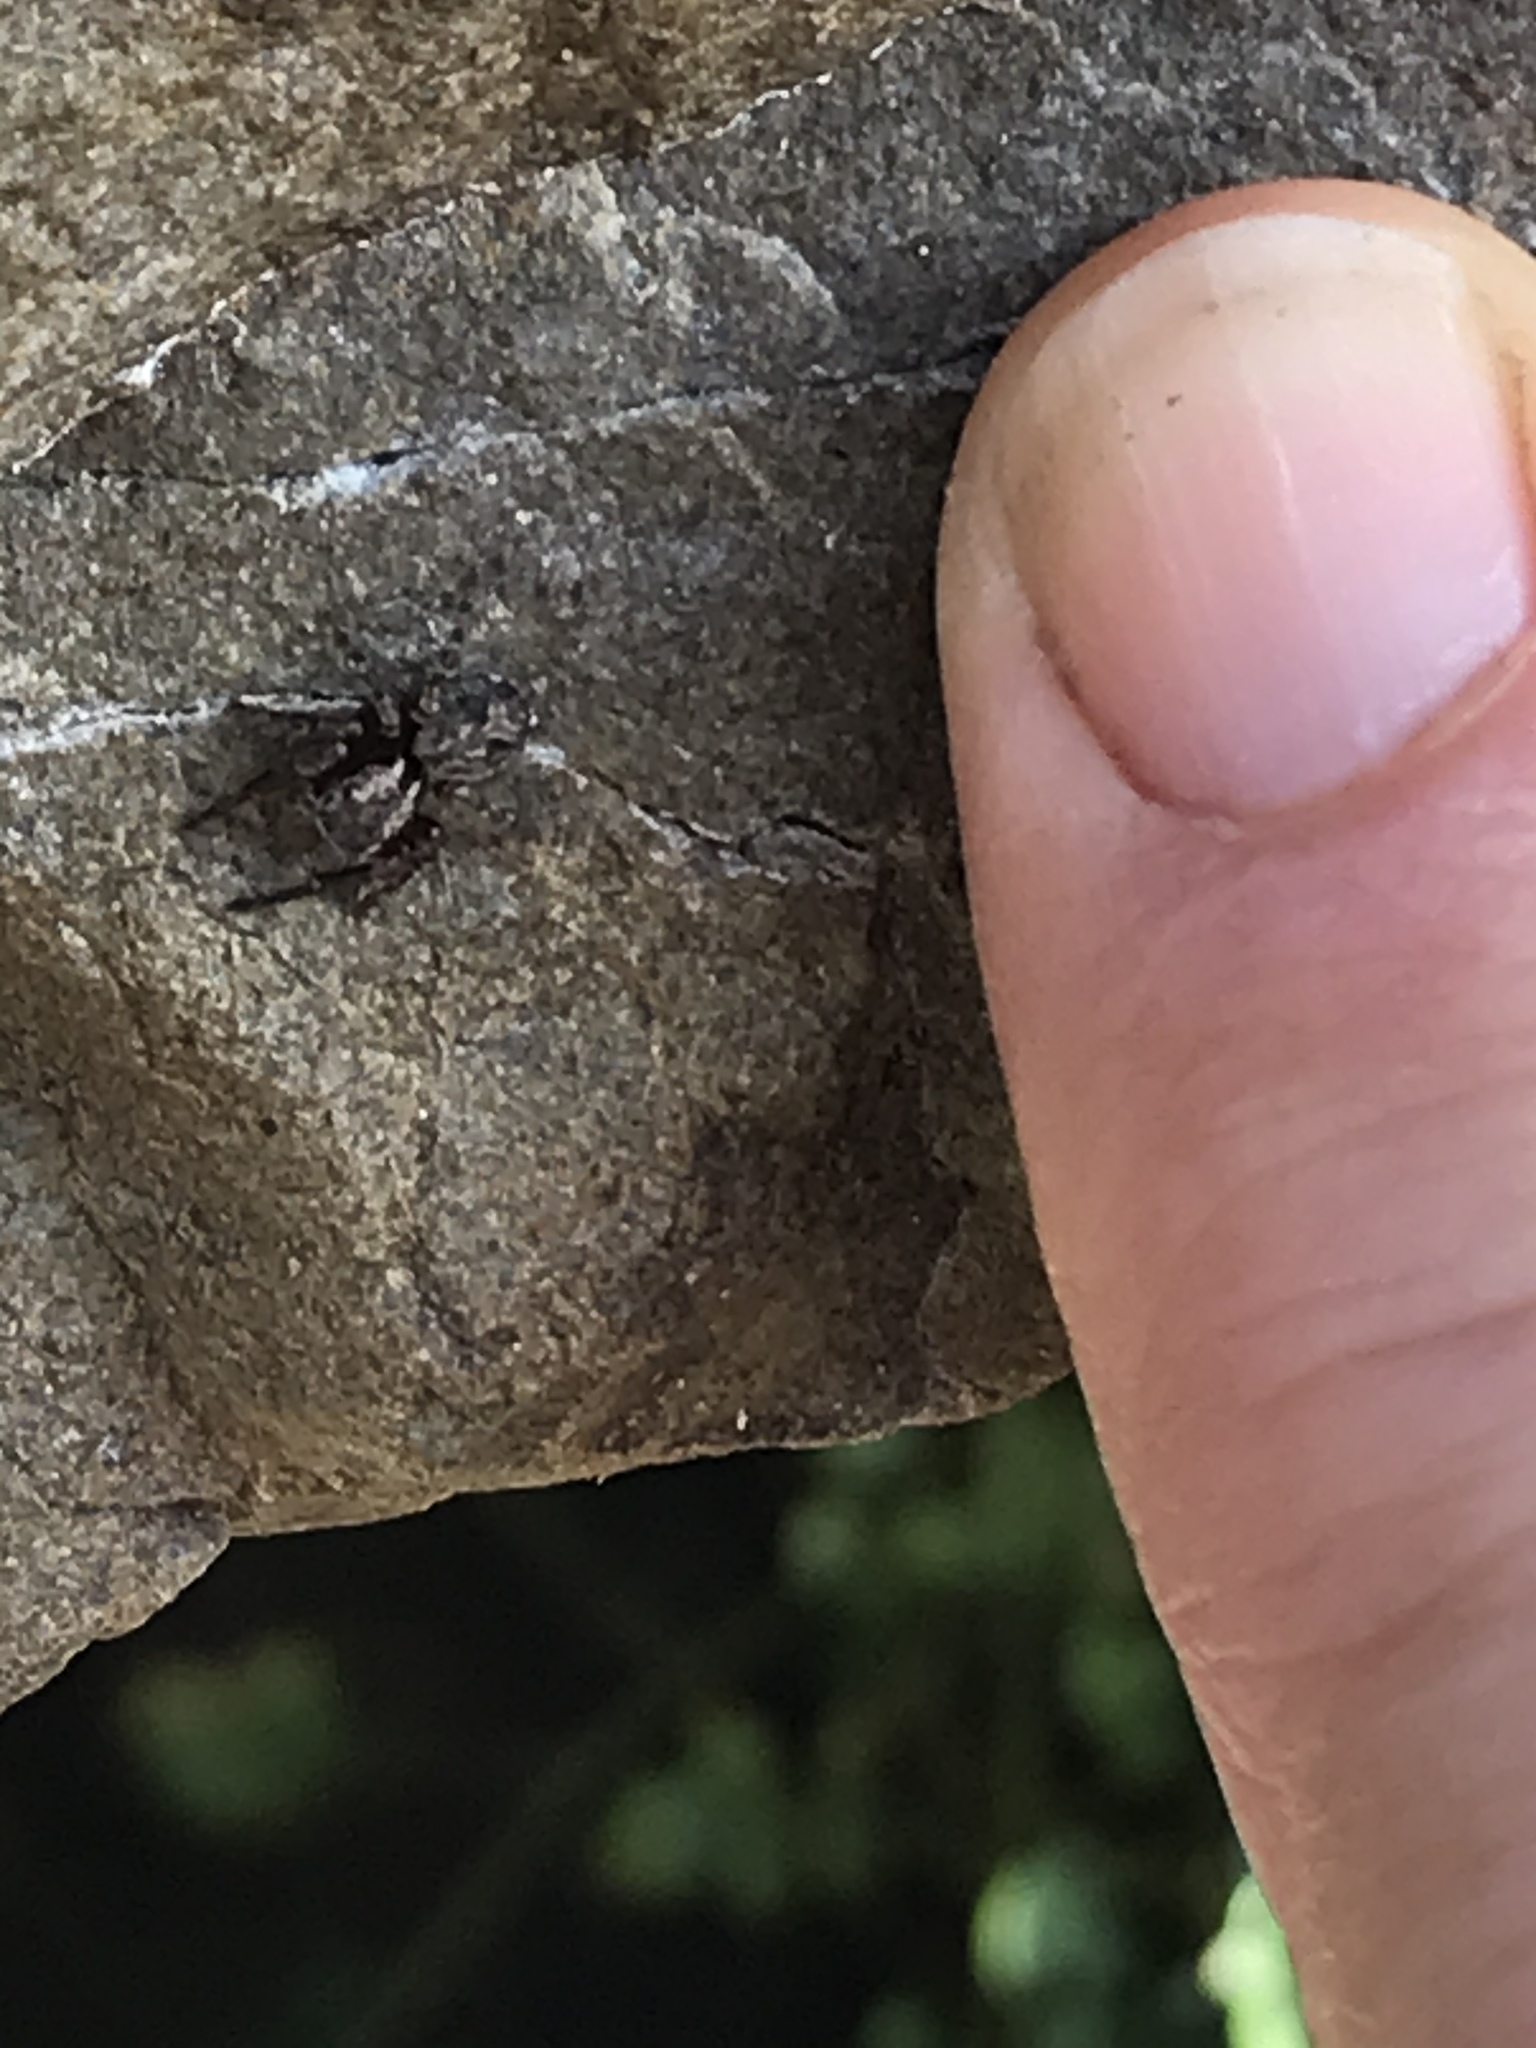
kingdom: Animalia
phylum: Arthropoda
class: Arachnida
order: Araneae
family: Salticidae
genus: Mexigonus
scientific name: Mexigonus morosus
